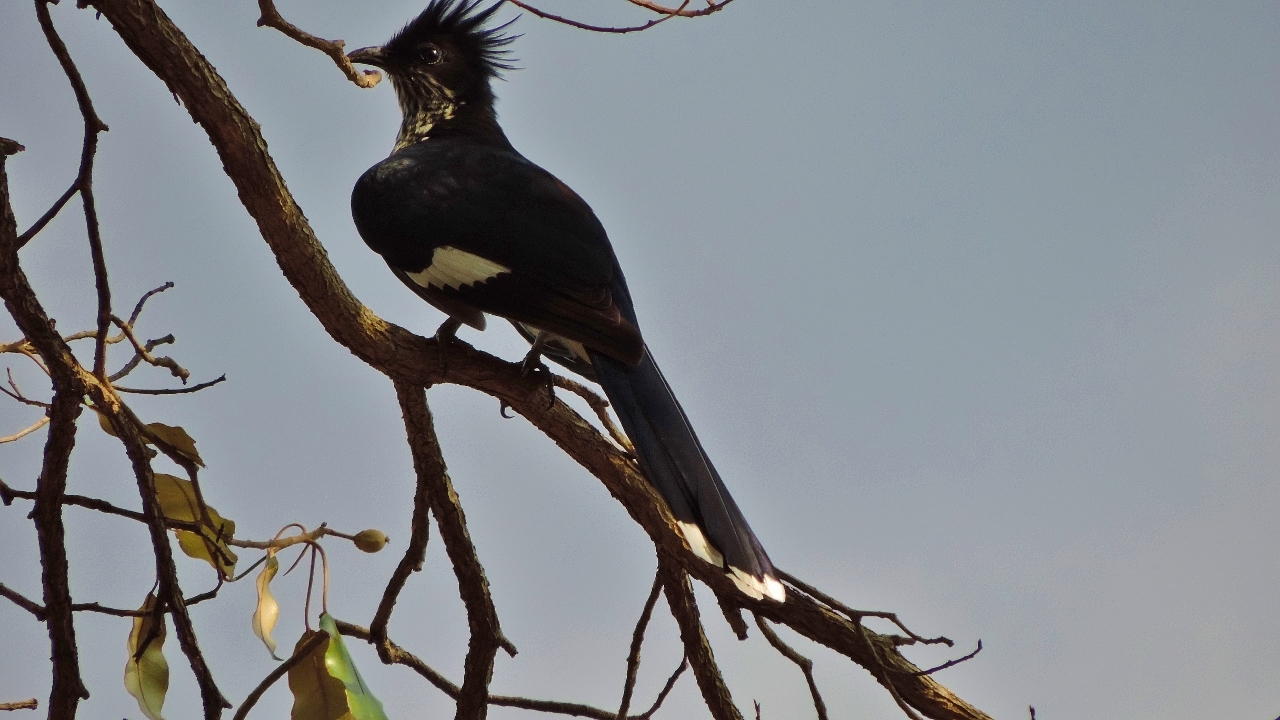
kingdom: Animalia
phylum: Chordata
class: Aves
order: Cuculiformes
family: Cuculidae
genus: Clamator
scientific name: Clamator levaillantii
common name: Levaillant's cuckoo
